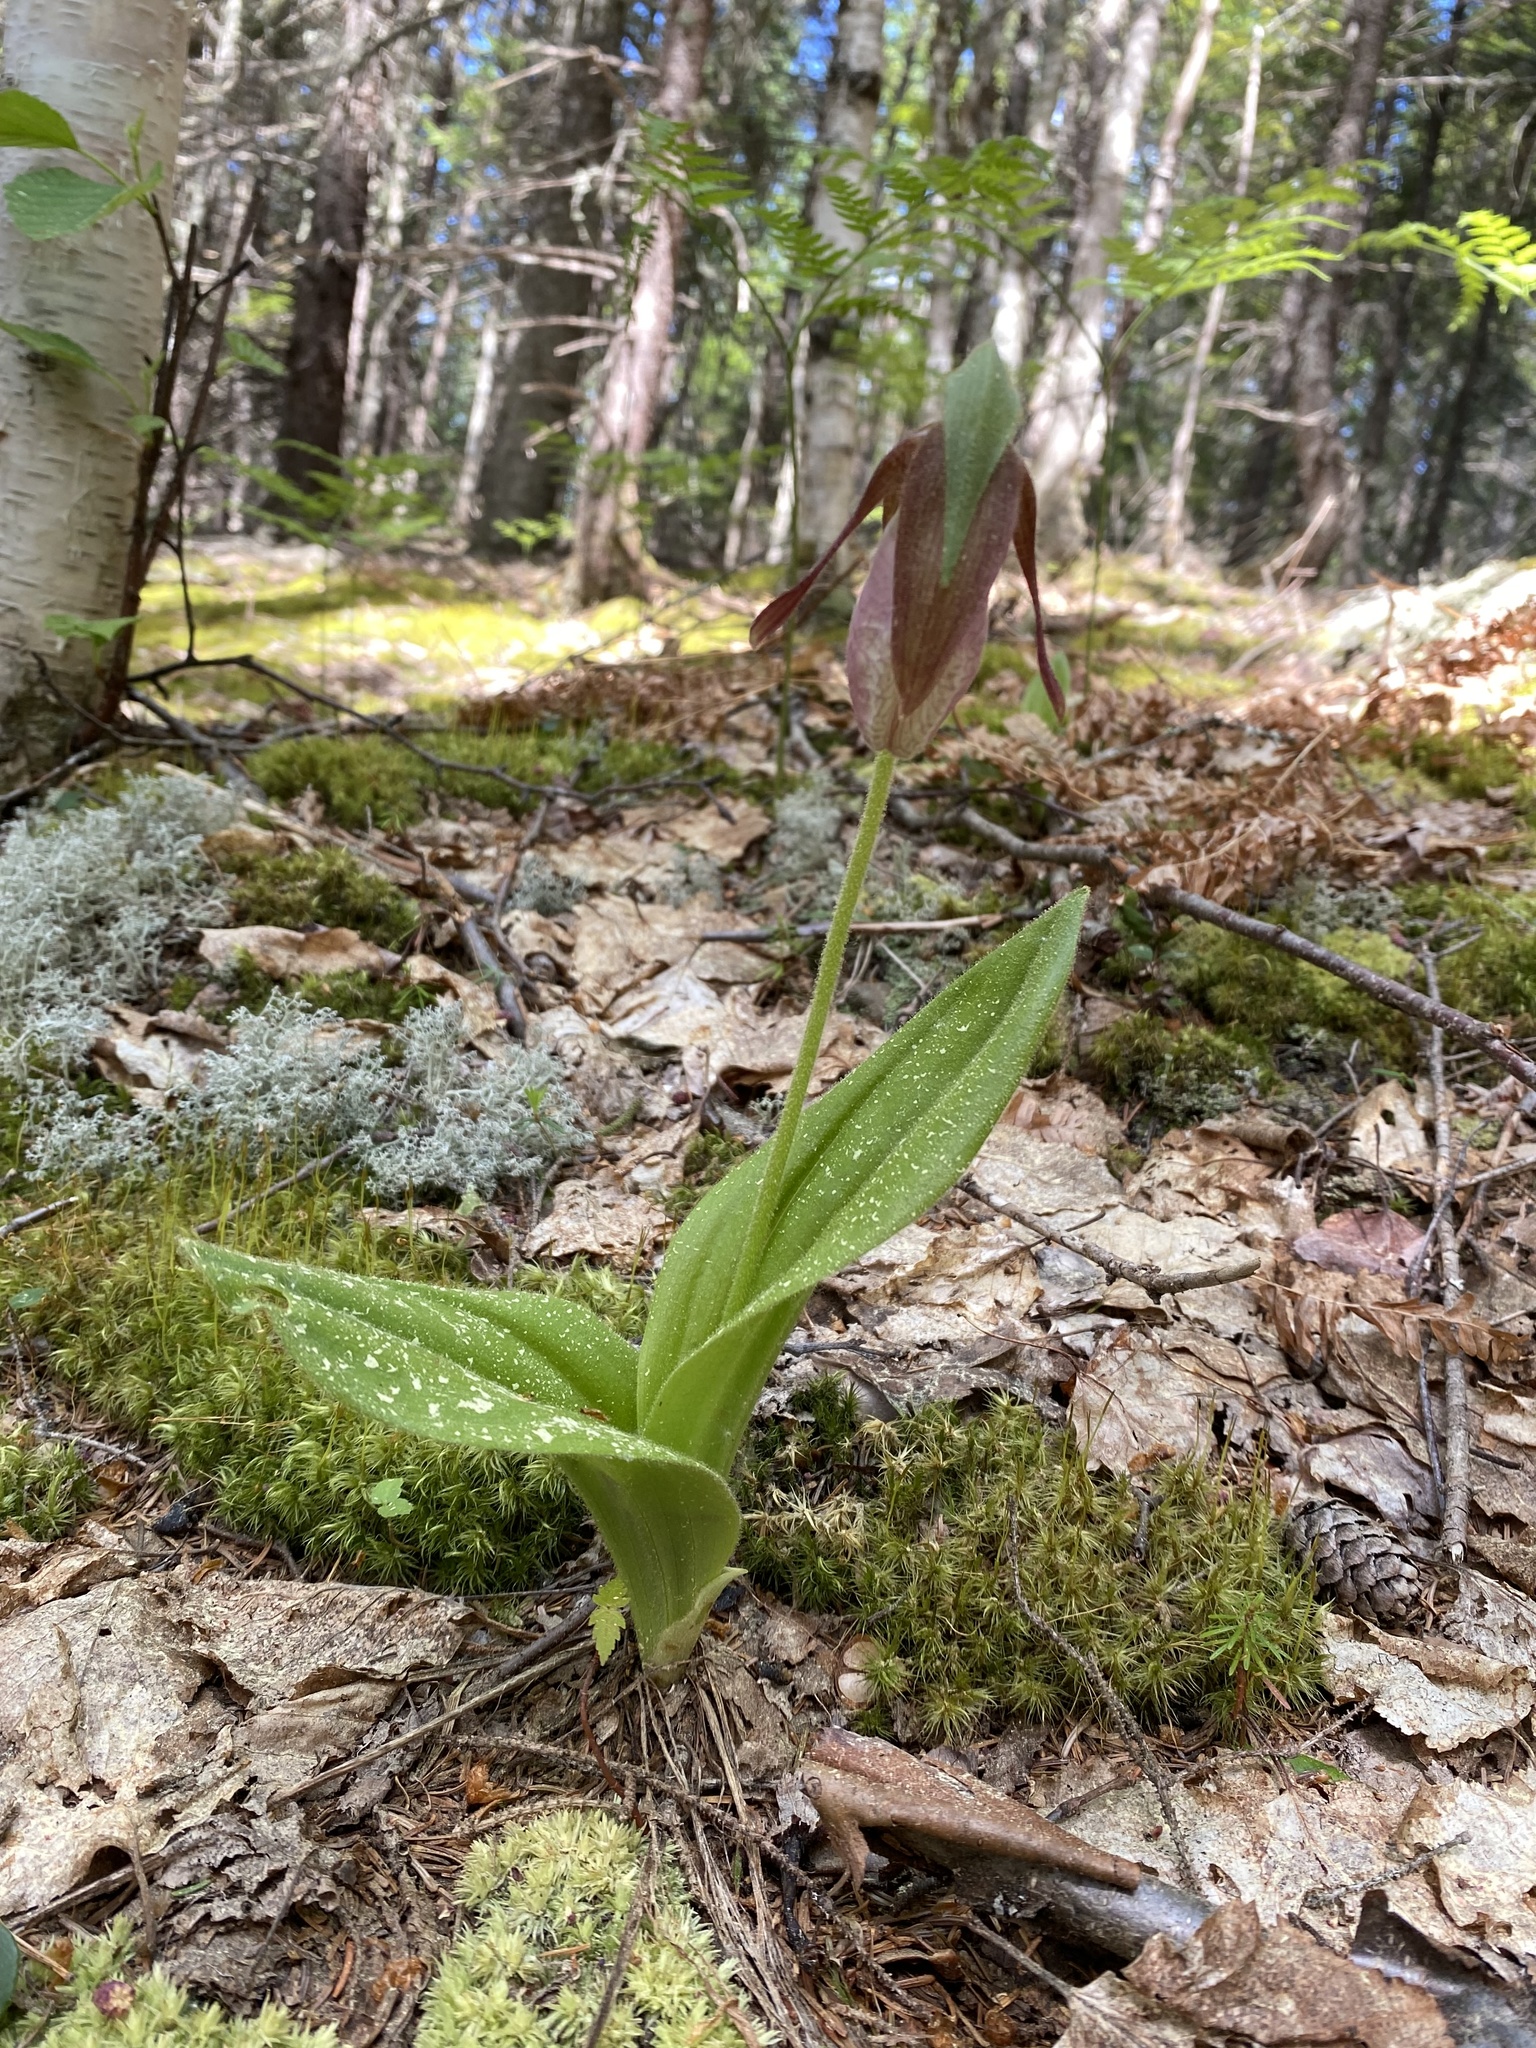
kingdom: Plantae
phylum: Tracheophyta
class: Liliopsida
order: Asparagales
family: Orchidaceae
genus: Cypripedium
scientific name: Cypripedium acaule
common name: Pink lady's-slipper
